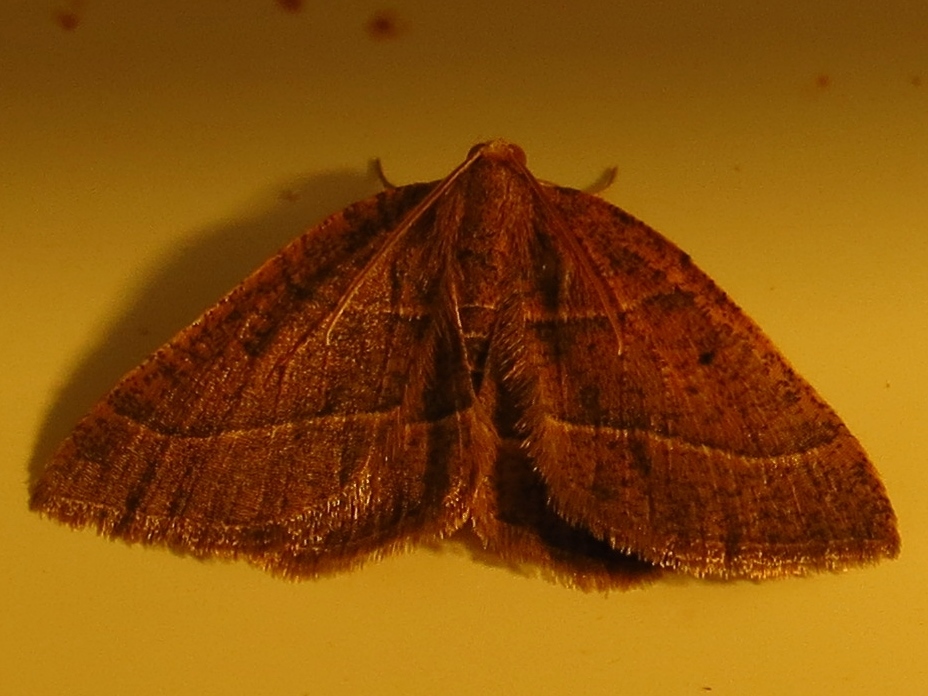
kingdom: Animalia
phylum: Arthropoda
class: Insecta
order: Lepidoptera
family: Geometridae
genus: Episemasia
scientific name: Episemasia cervinaria
